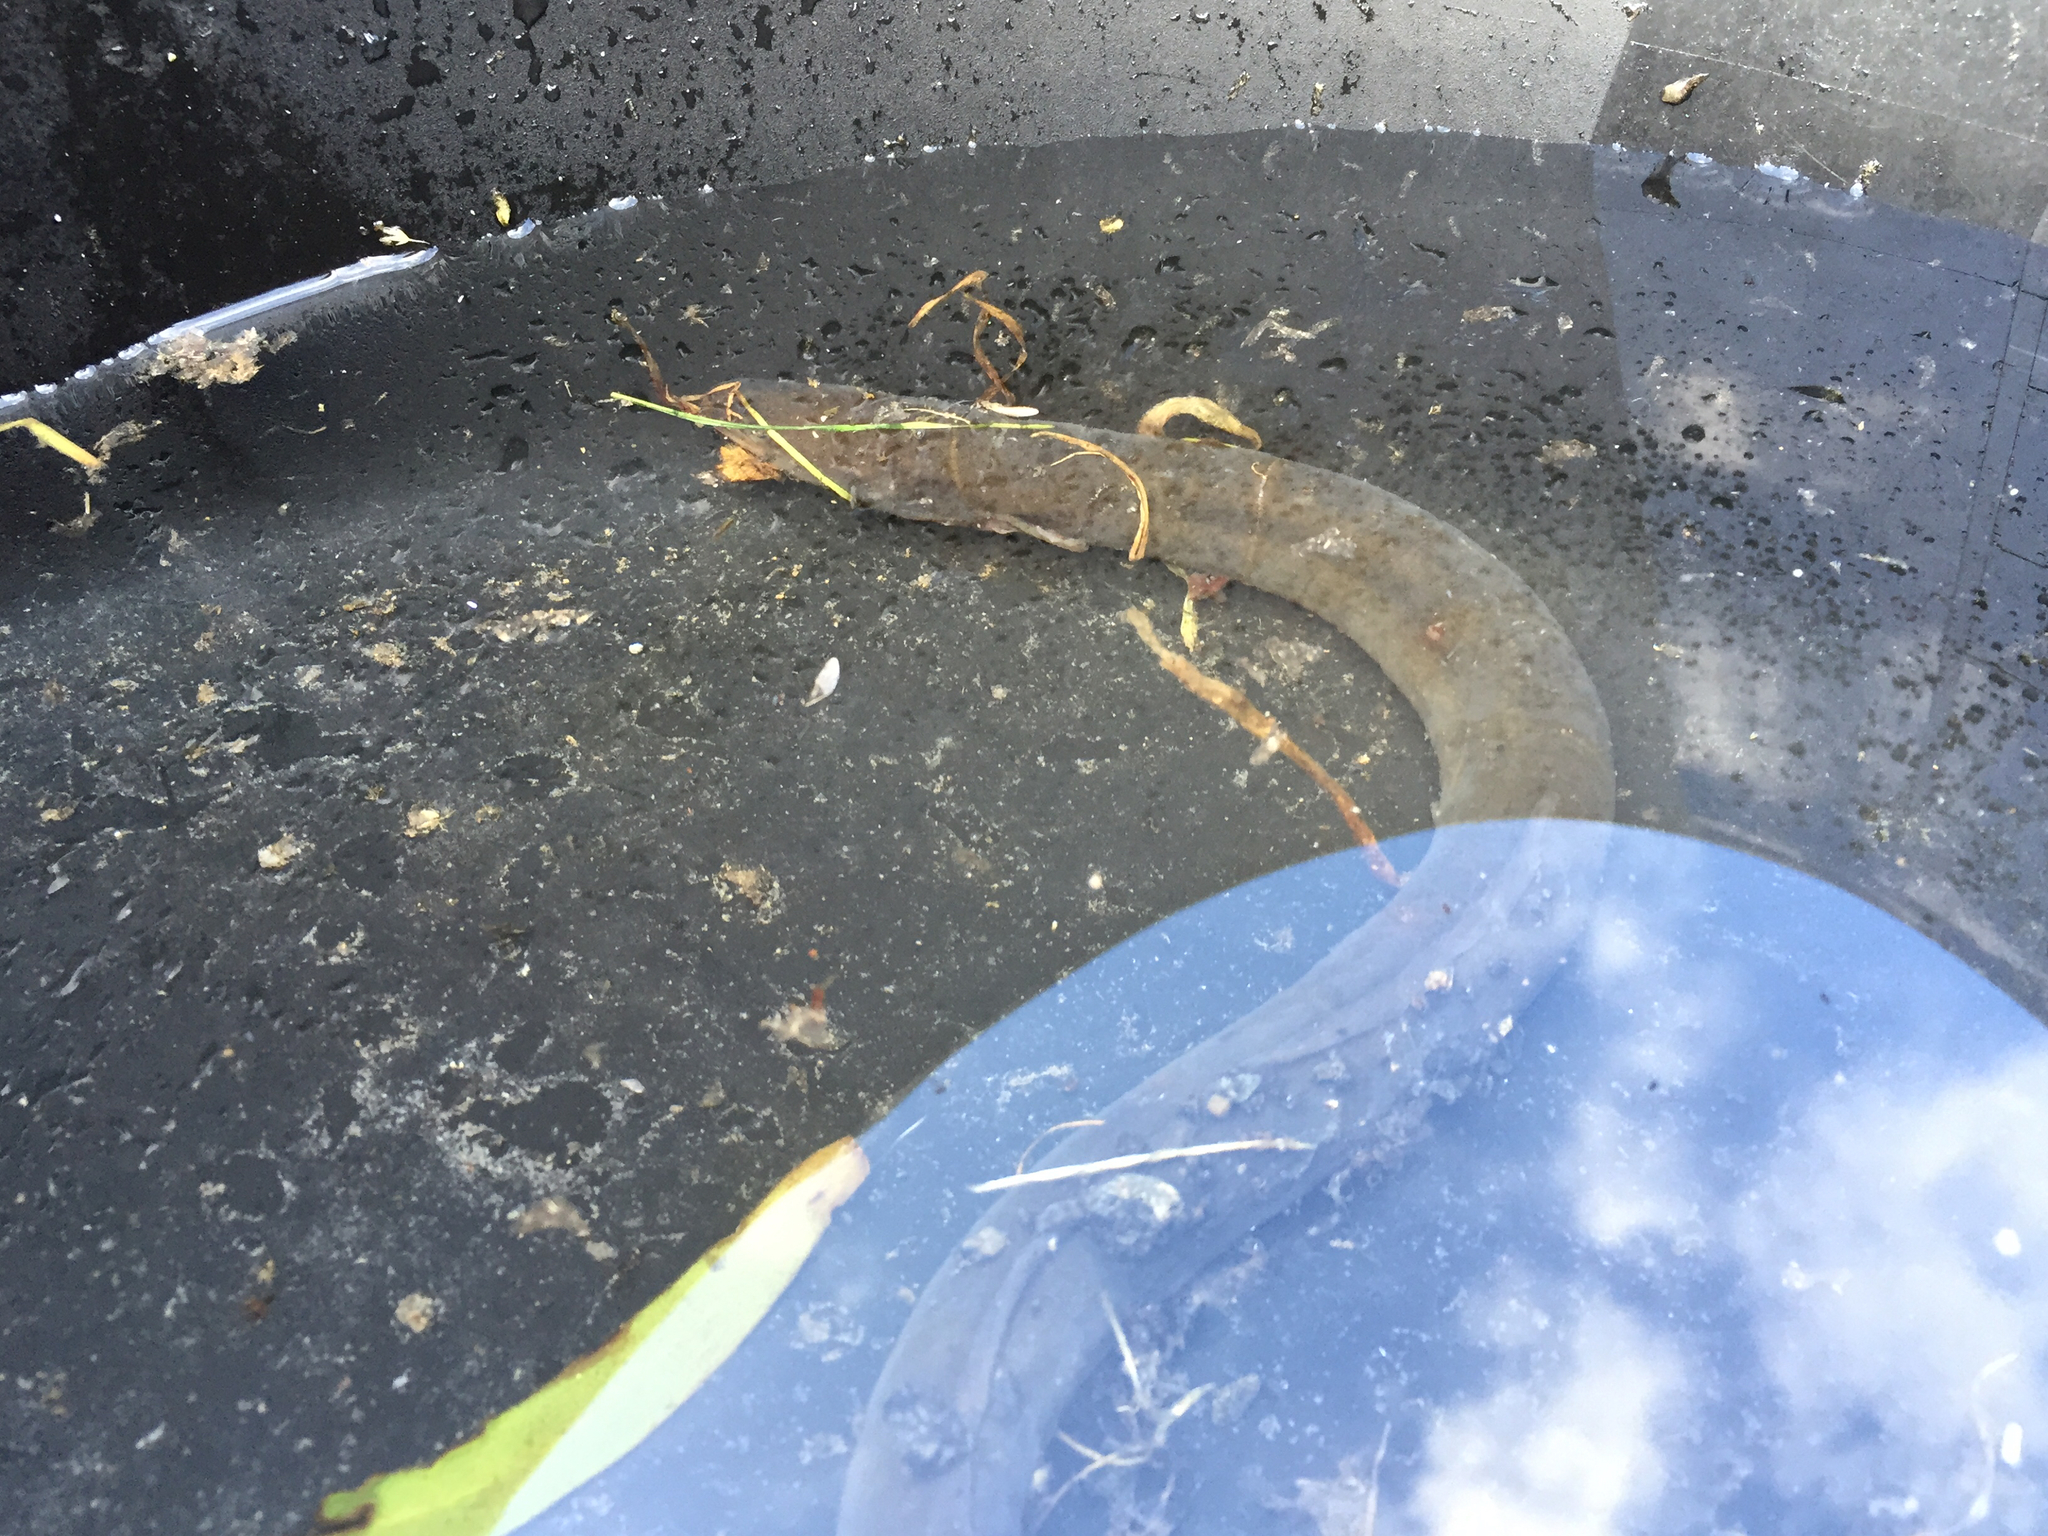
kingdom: Animalia
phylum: Chordata
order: Anguilliformes
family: Anguillidae
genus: Anguilla
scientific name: Anguilla australis
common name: Shortfin eel
